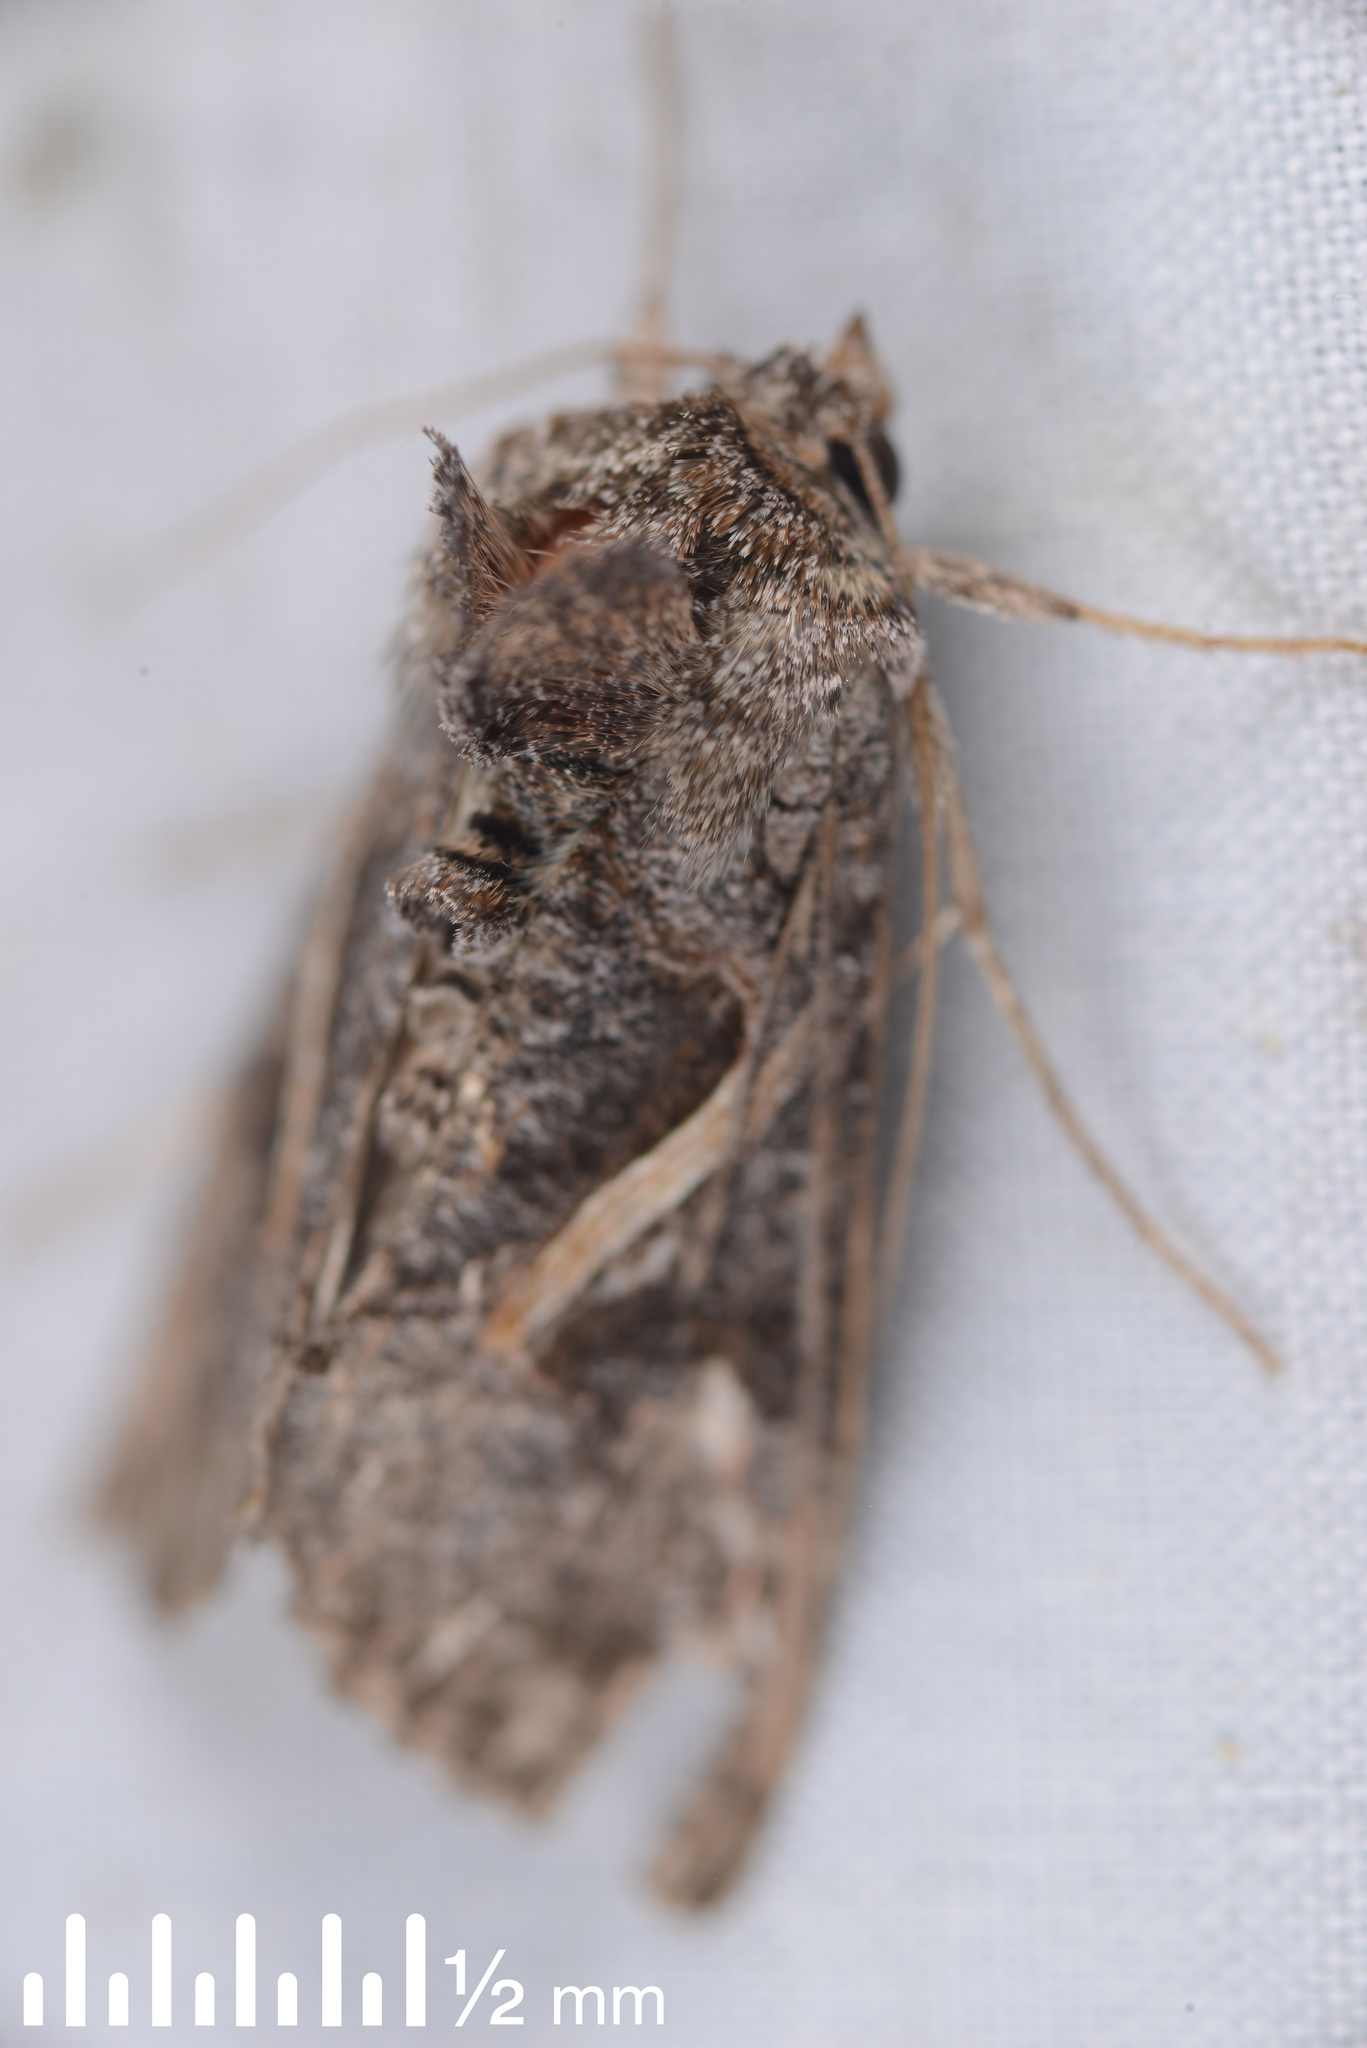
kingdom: Animalia
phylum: Arthropoda
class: Insecta
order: Lepidoptera
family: Noctuidae
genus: Ctenoplusia
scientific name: Ctenoplusia albostriata
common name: Moth
